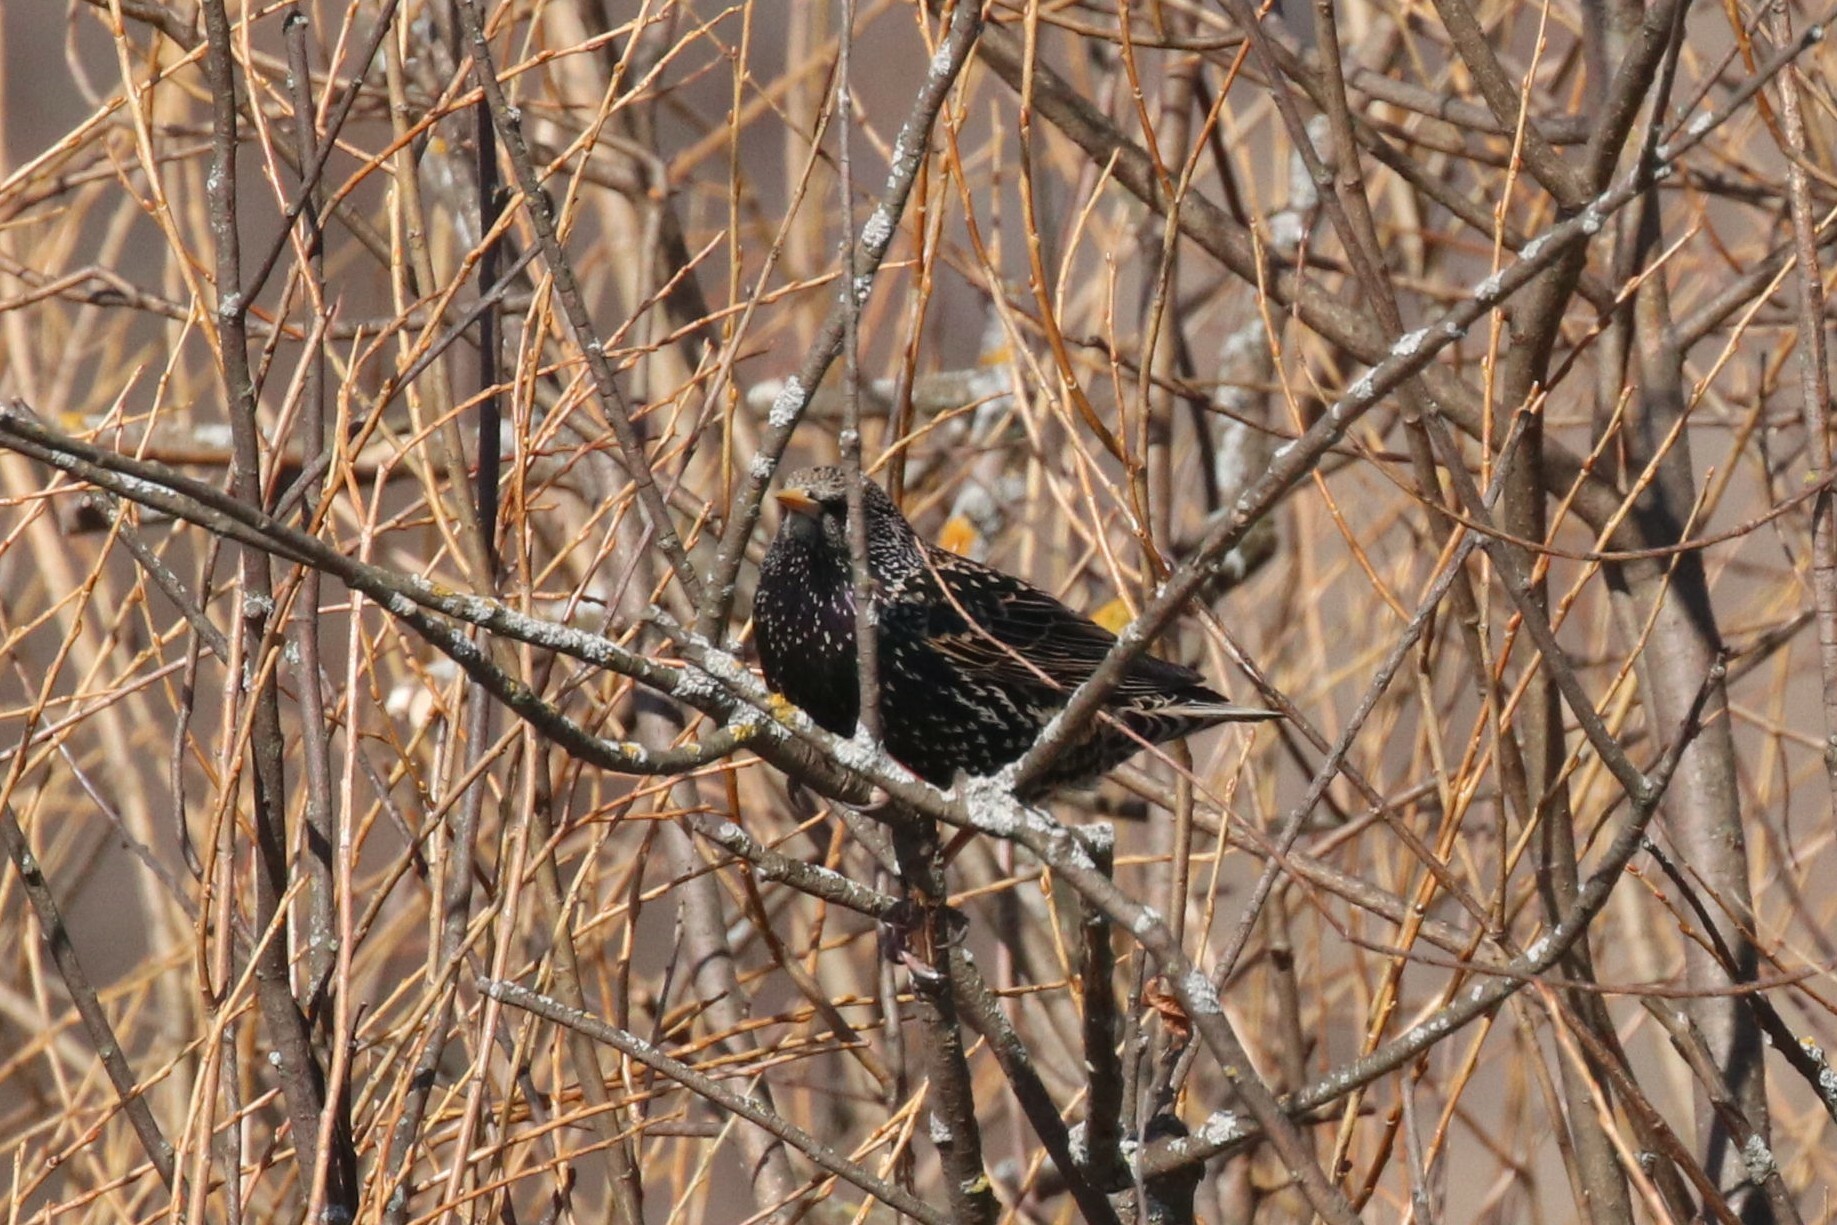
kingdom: Animalia
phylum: Chordata
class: Aves
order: Passeriformes
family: Sturnidae
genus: Sturnus
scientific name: Sturnus vulgaris
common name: Common starling
